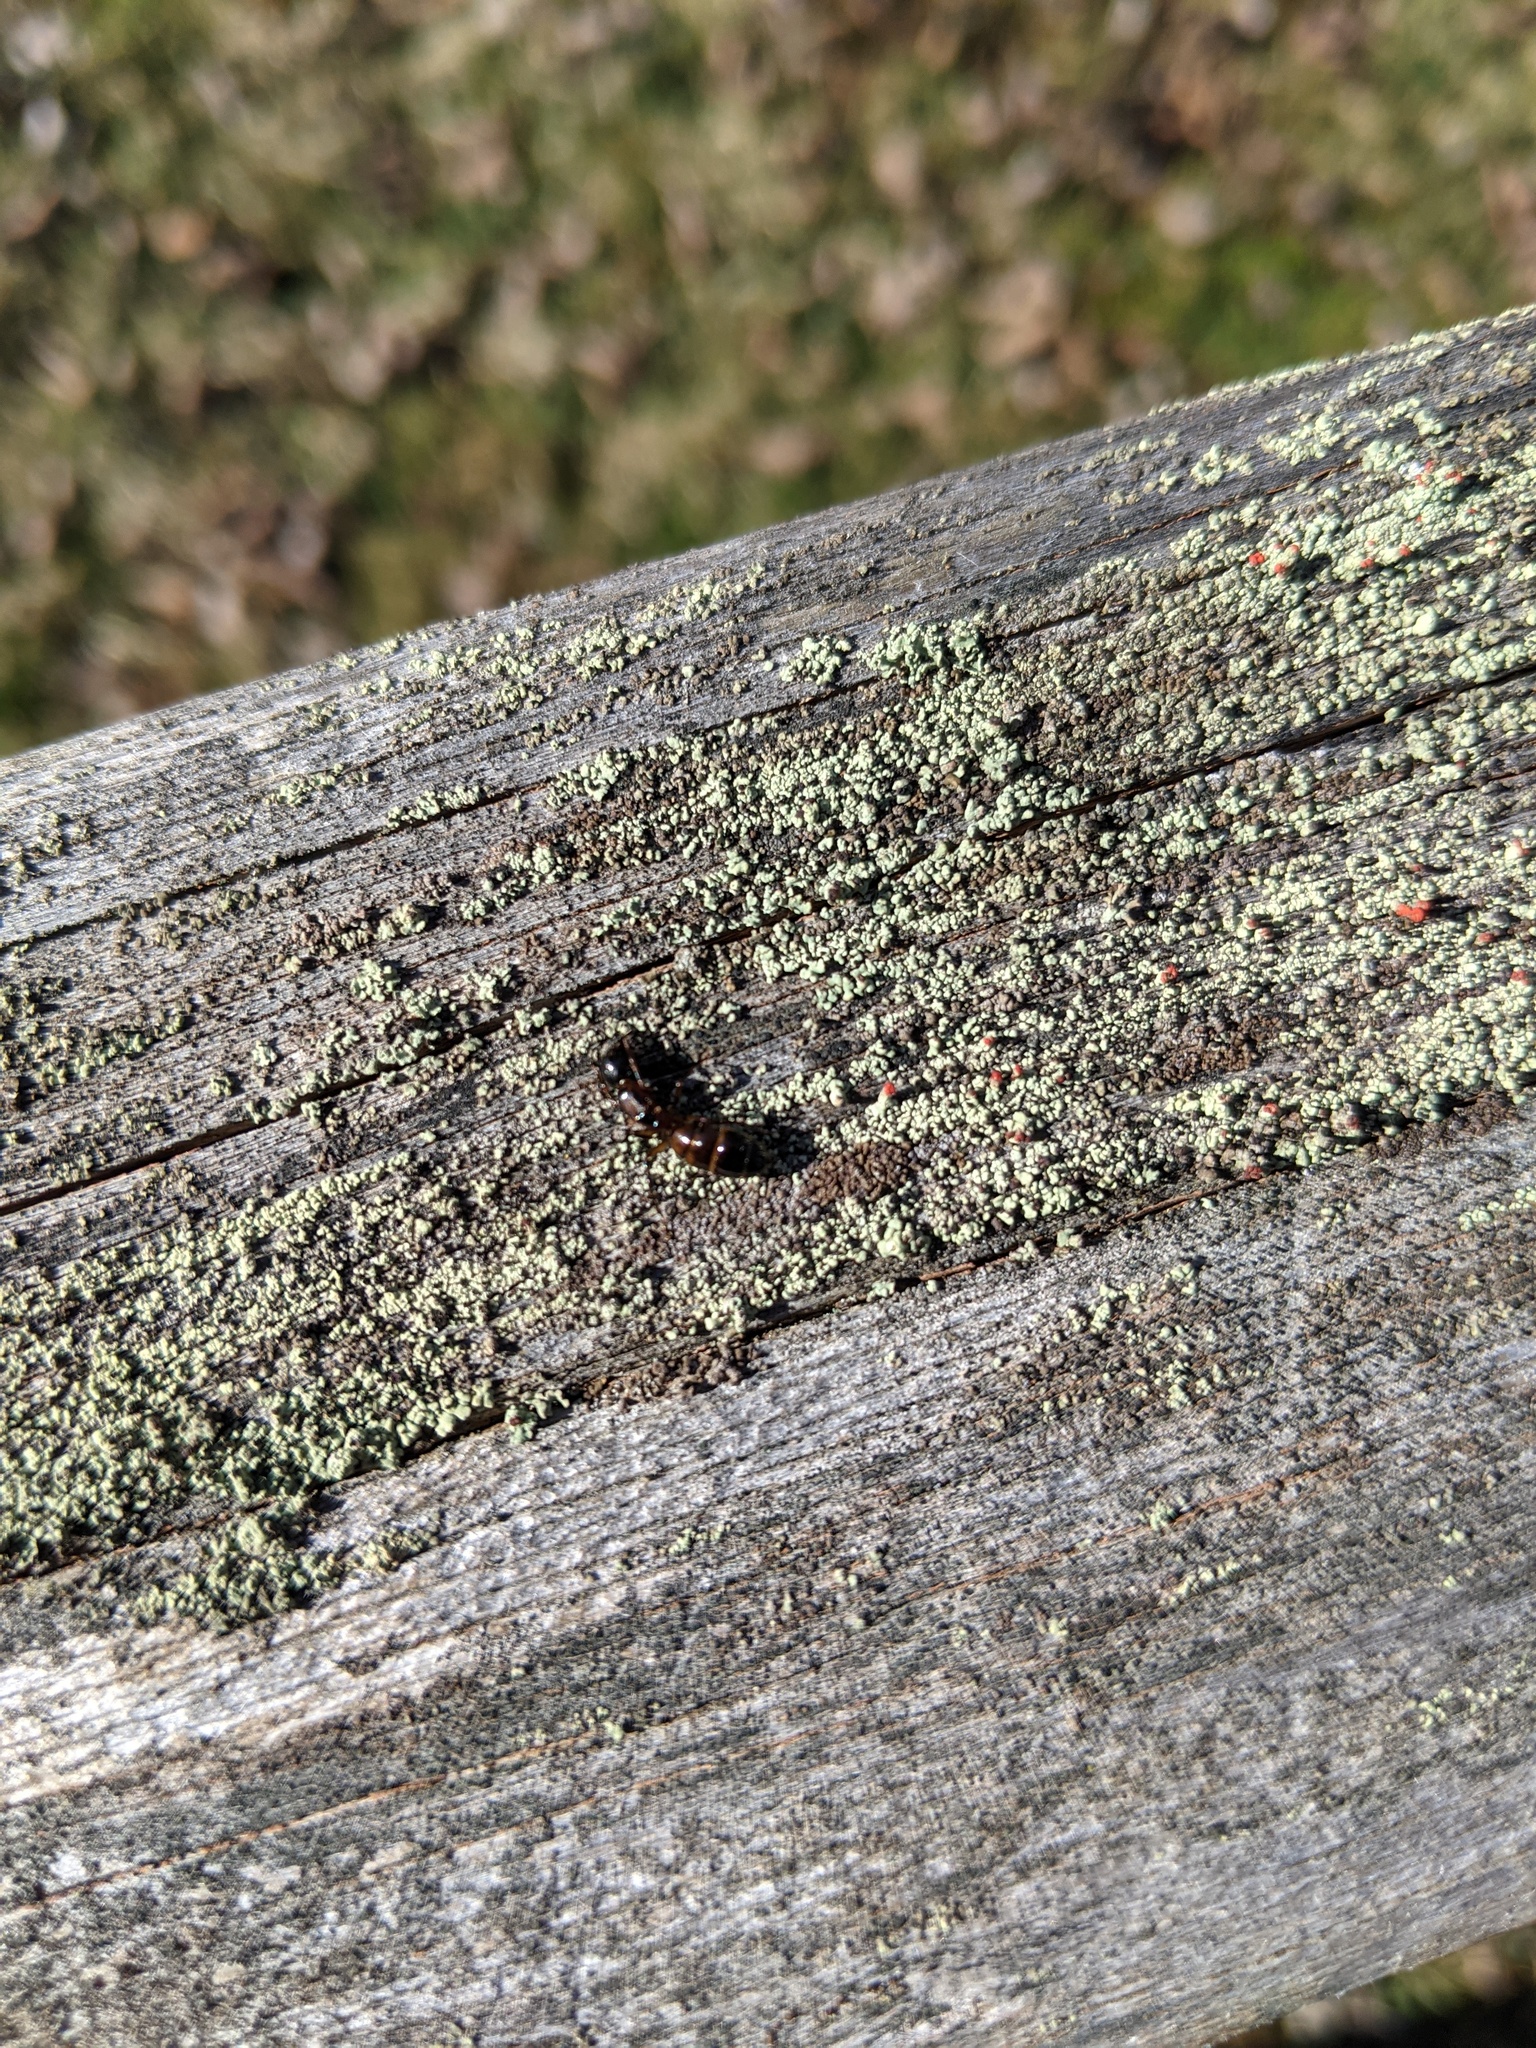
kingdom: Animalia
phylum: Arthropoda
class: Insecta
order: Hymenoptera
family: Formicidae
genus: Camponotus
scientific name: Camponotus nearcticus
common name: Smaller carpenter ant
